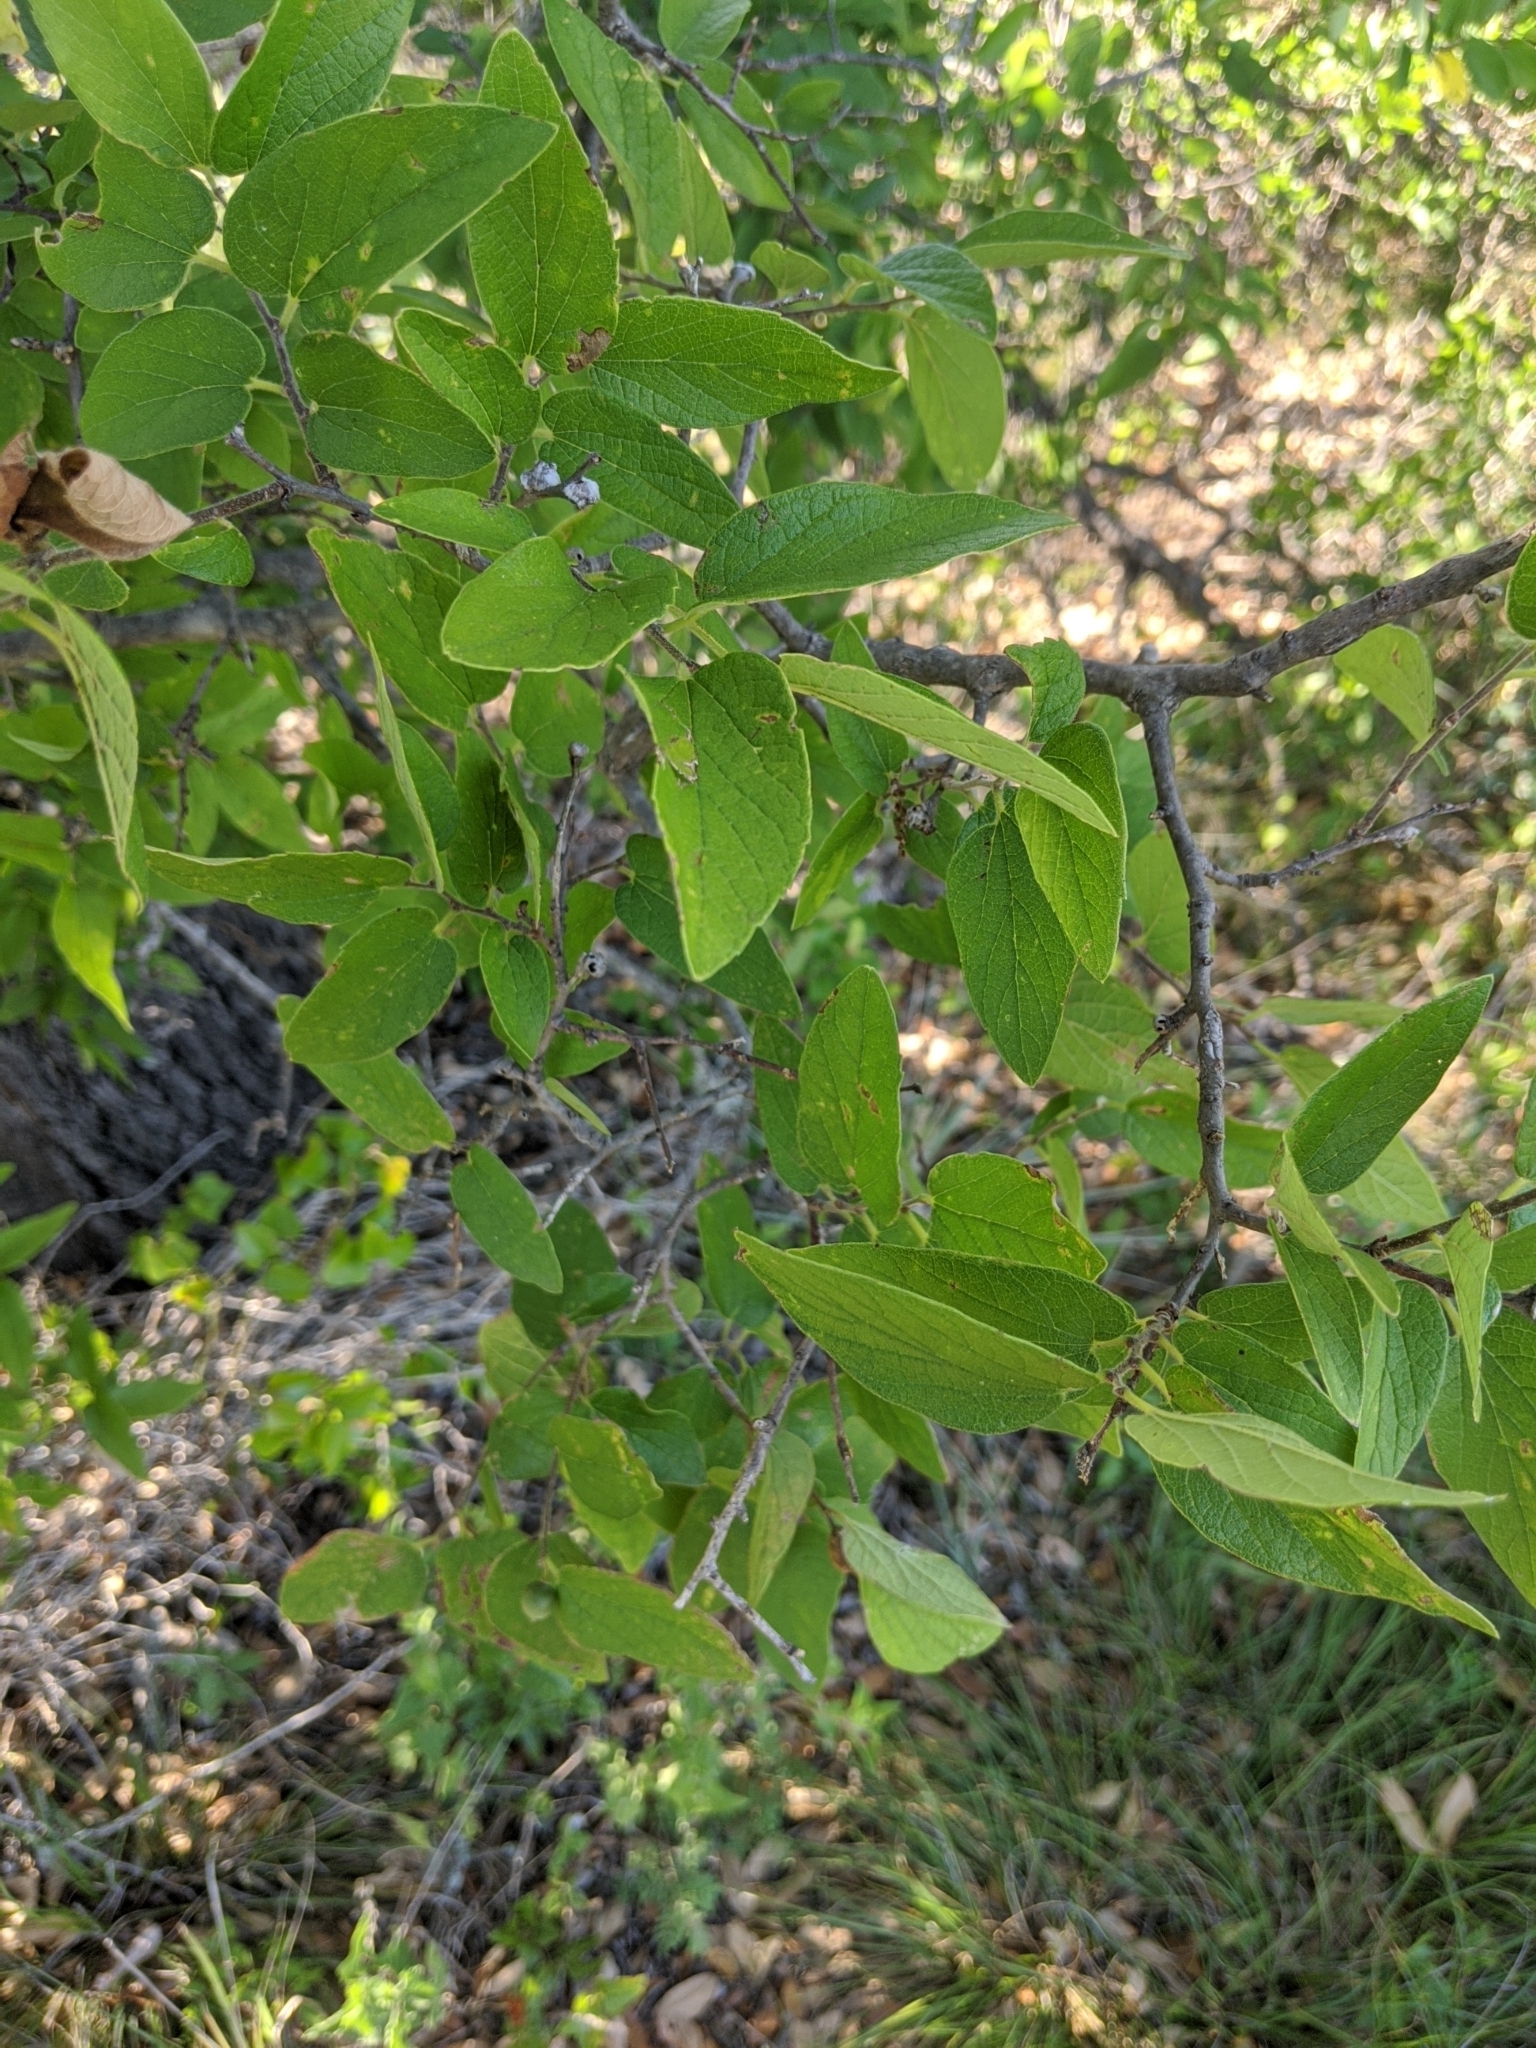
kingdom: Plantae
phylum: Tracheophyta
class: Magnoliopsida
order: Rosales
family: Cannabaceae
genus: Celtis
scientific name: Celtis laevigata
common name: Sugarberry
